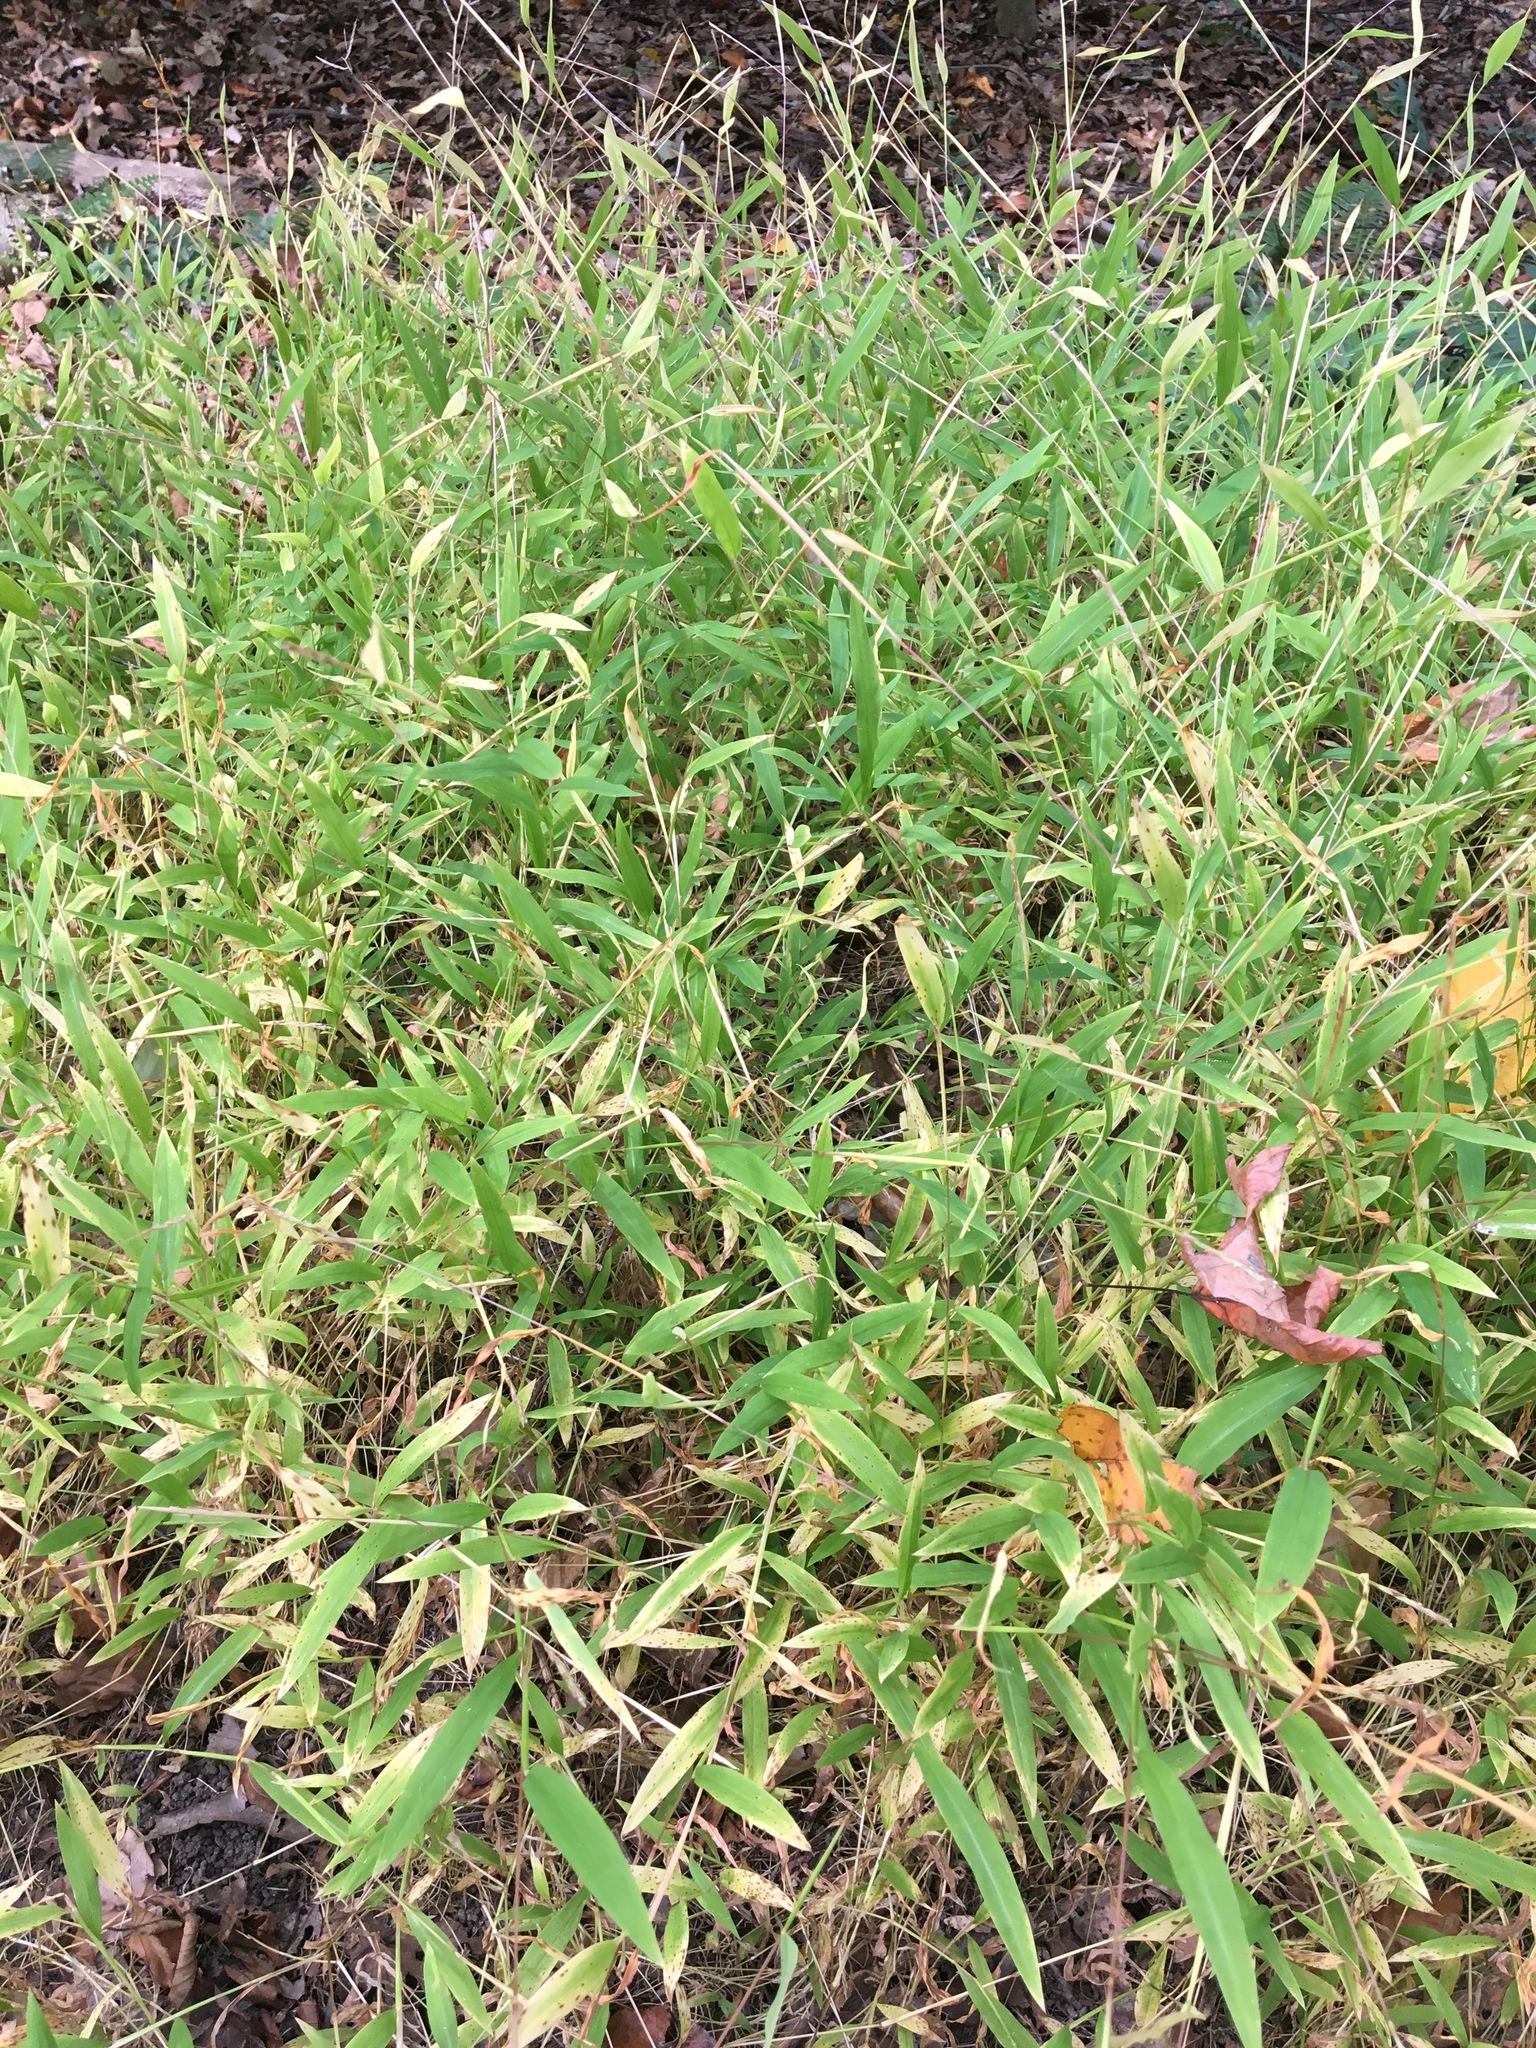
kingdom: Plantae
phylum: Tracheophyta
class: Liliopsida
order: Poales
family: Poaceae
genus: Microstegium
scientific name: Microstegium vimineum
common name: Japanese stiltgrass
